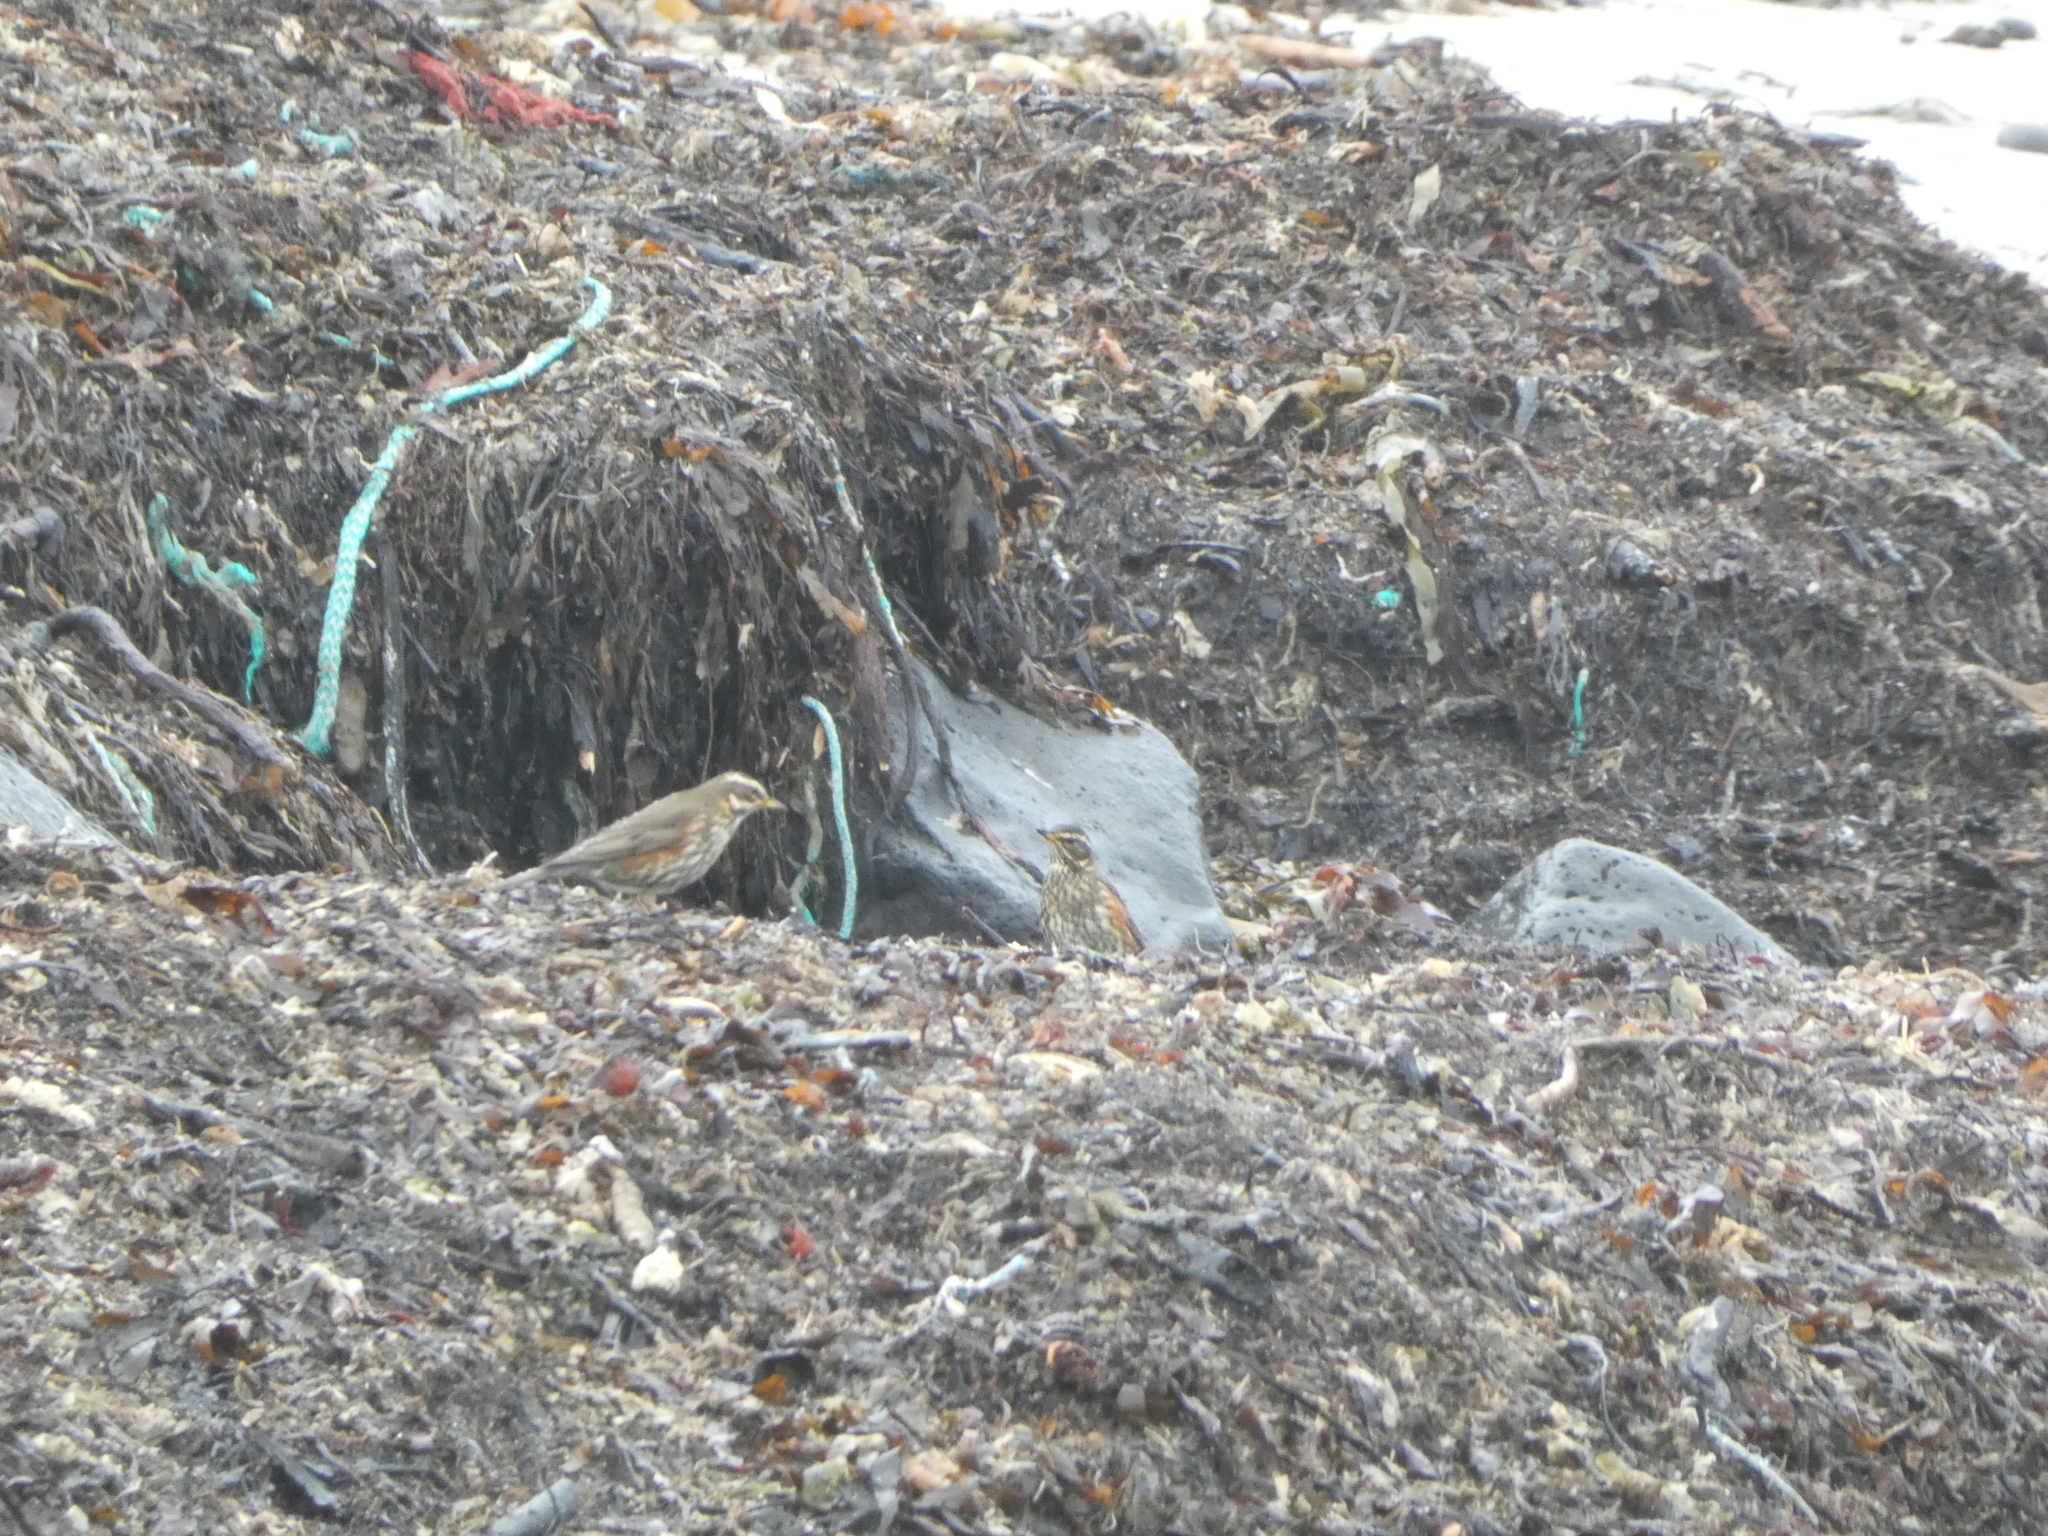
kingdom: Animalia
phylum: Chordata
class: Aves
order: Passeriformes
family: Turdidae
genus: Turdus
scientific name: Turdus iliacus
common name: Redwing
